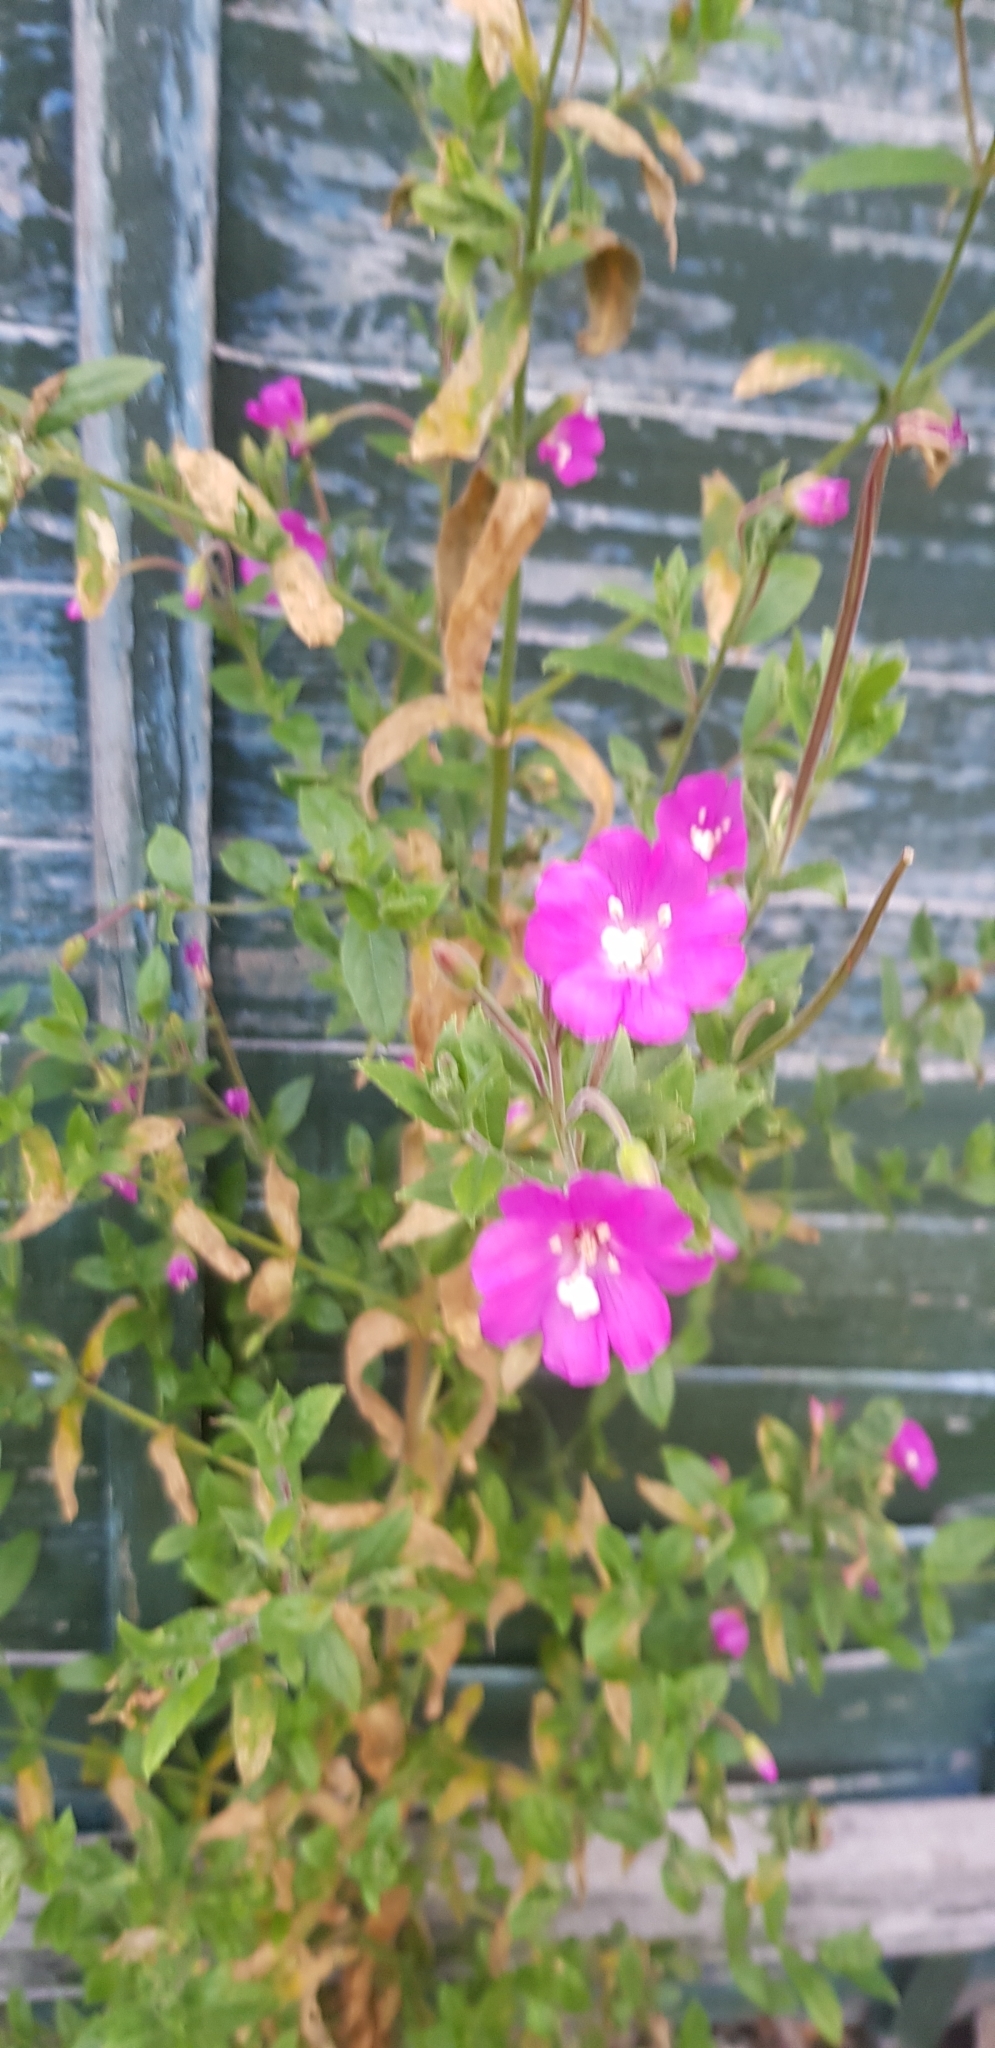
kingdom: Plantae
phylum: Tracheophyta
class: Magnoliopsida
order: Myrtales
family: Onagraceae
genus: Epilobium
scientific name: Epilobium hirsutum
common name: Great willowherb
